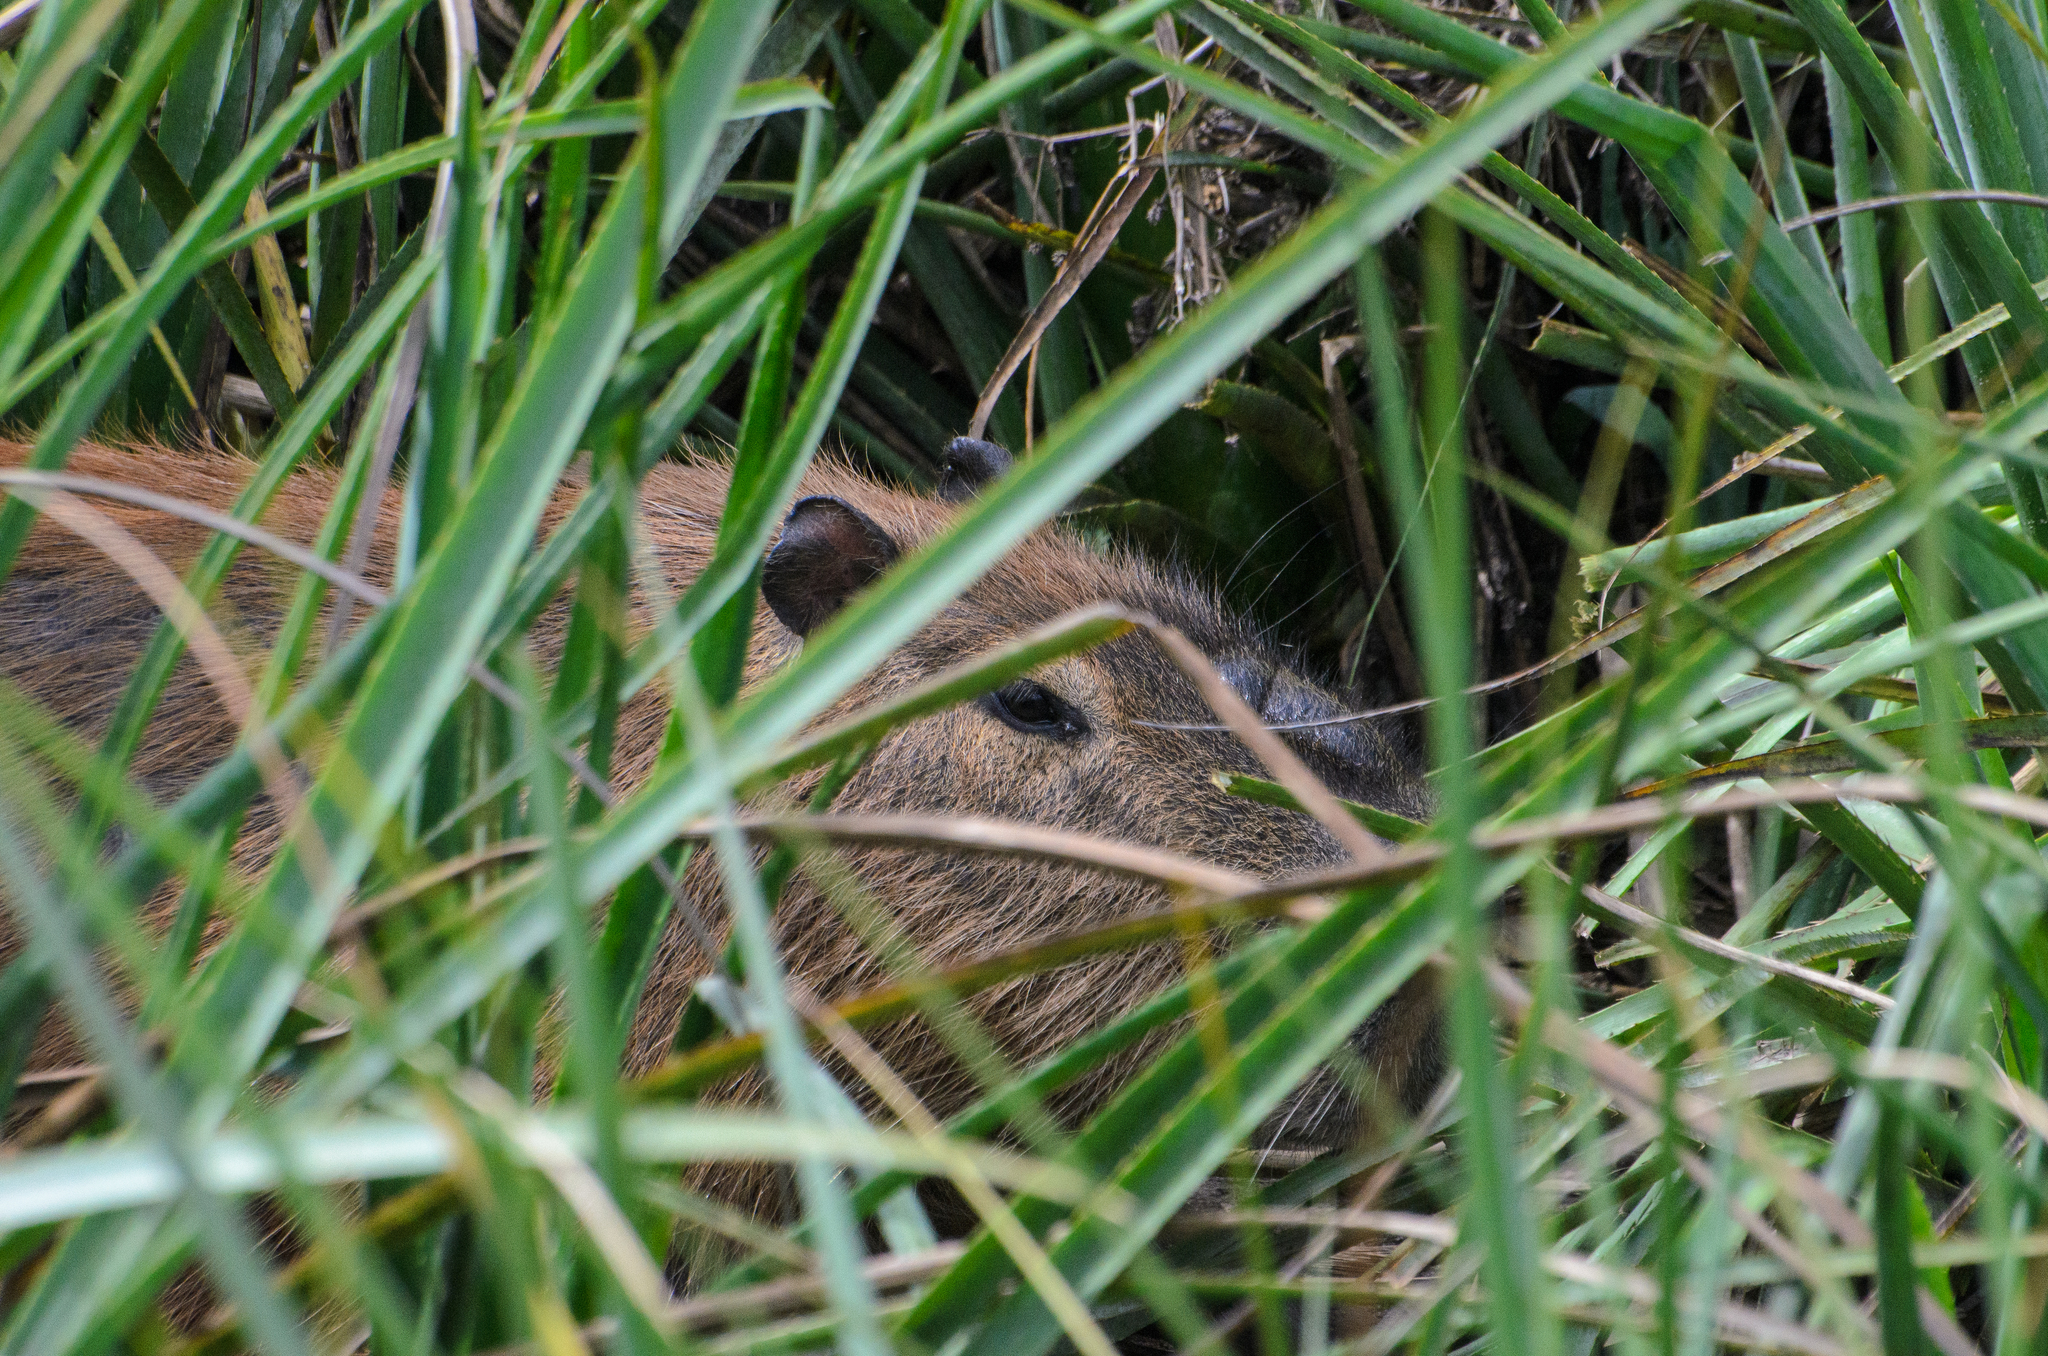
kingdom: Animalia
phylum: Chordata
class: Mammalia
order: Rodentia
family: Caviidae
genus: Hydrochoerus
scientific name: Hydrochoerus hydrochaeris
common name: Capybara
